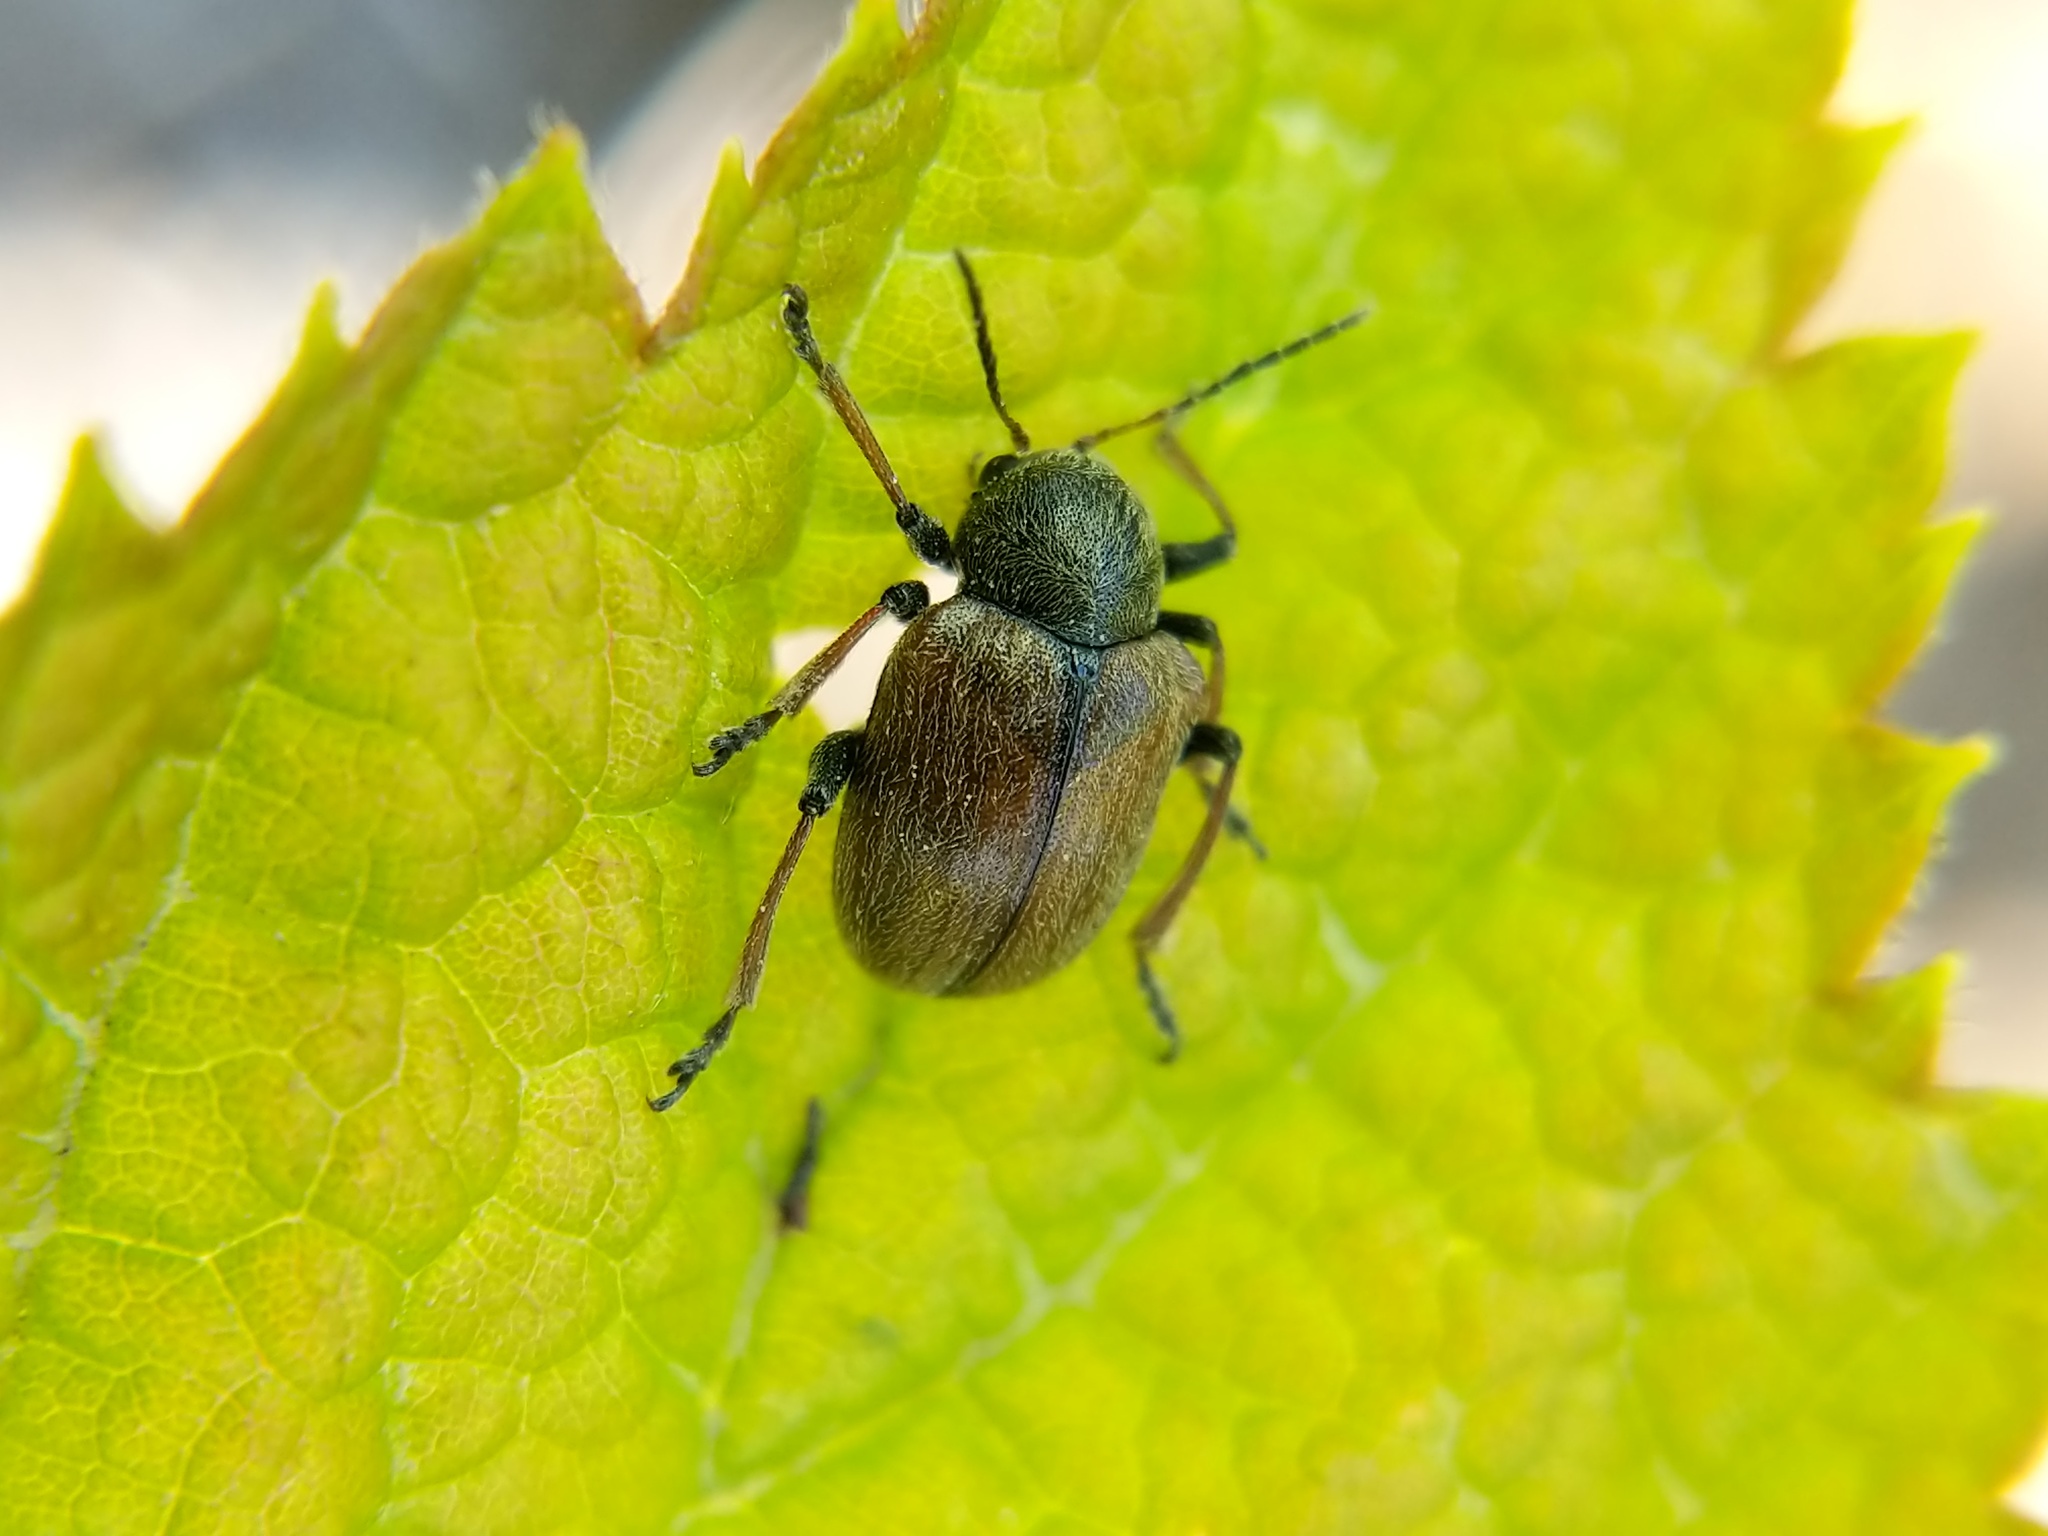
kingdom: Animalia
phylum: Arthropoda
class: Insecta
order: Coleoptera
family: Chrysomelidae
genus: Bromius
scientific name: Bromius obscurus
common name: Western grape rootworm
